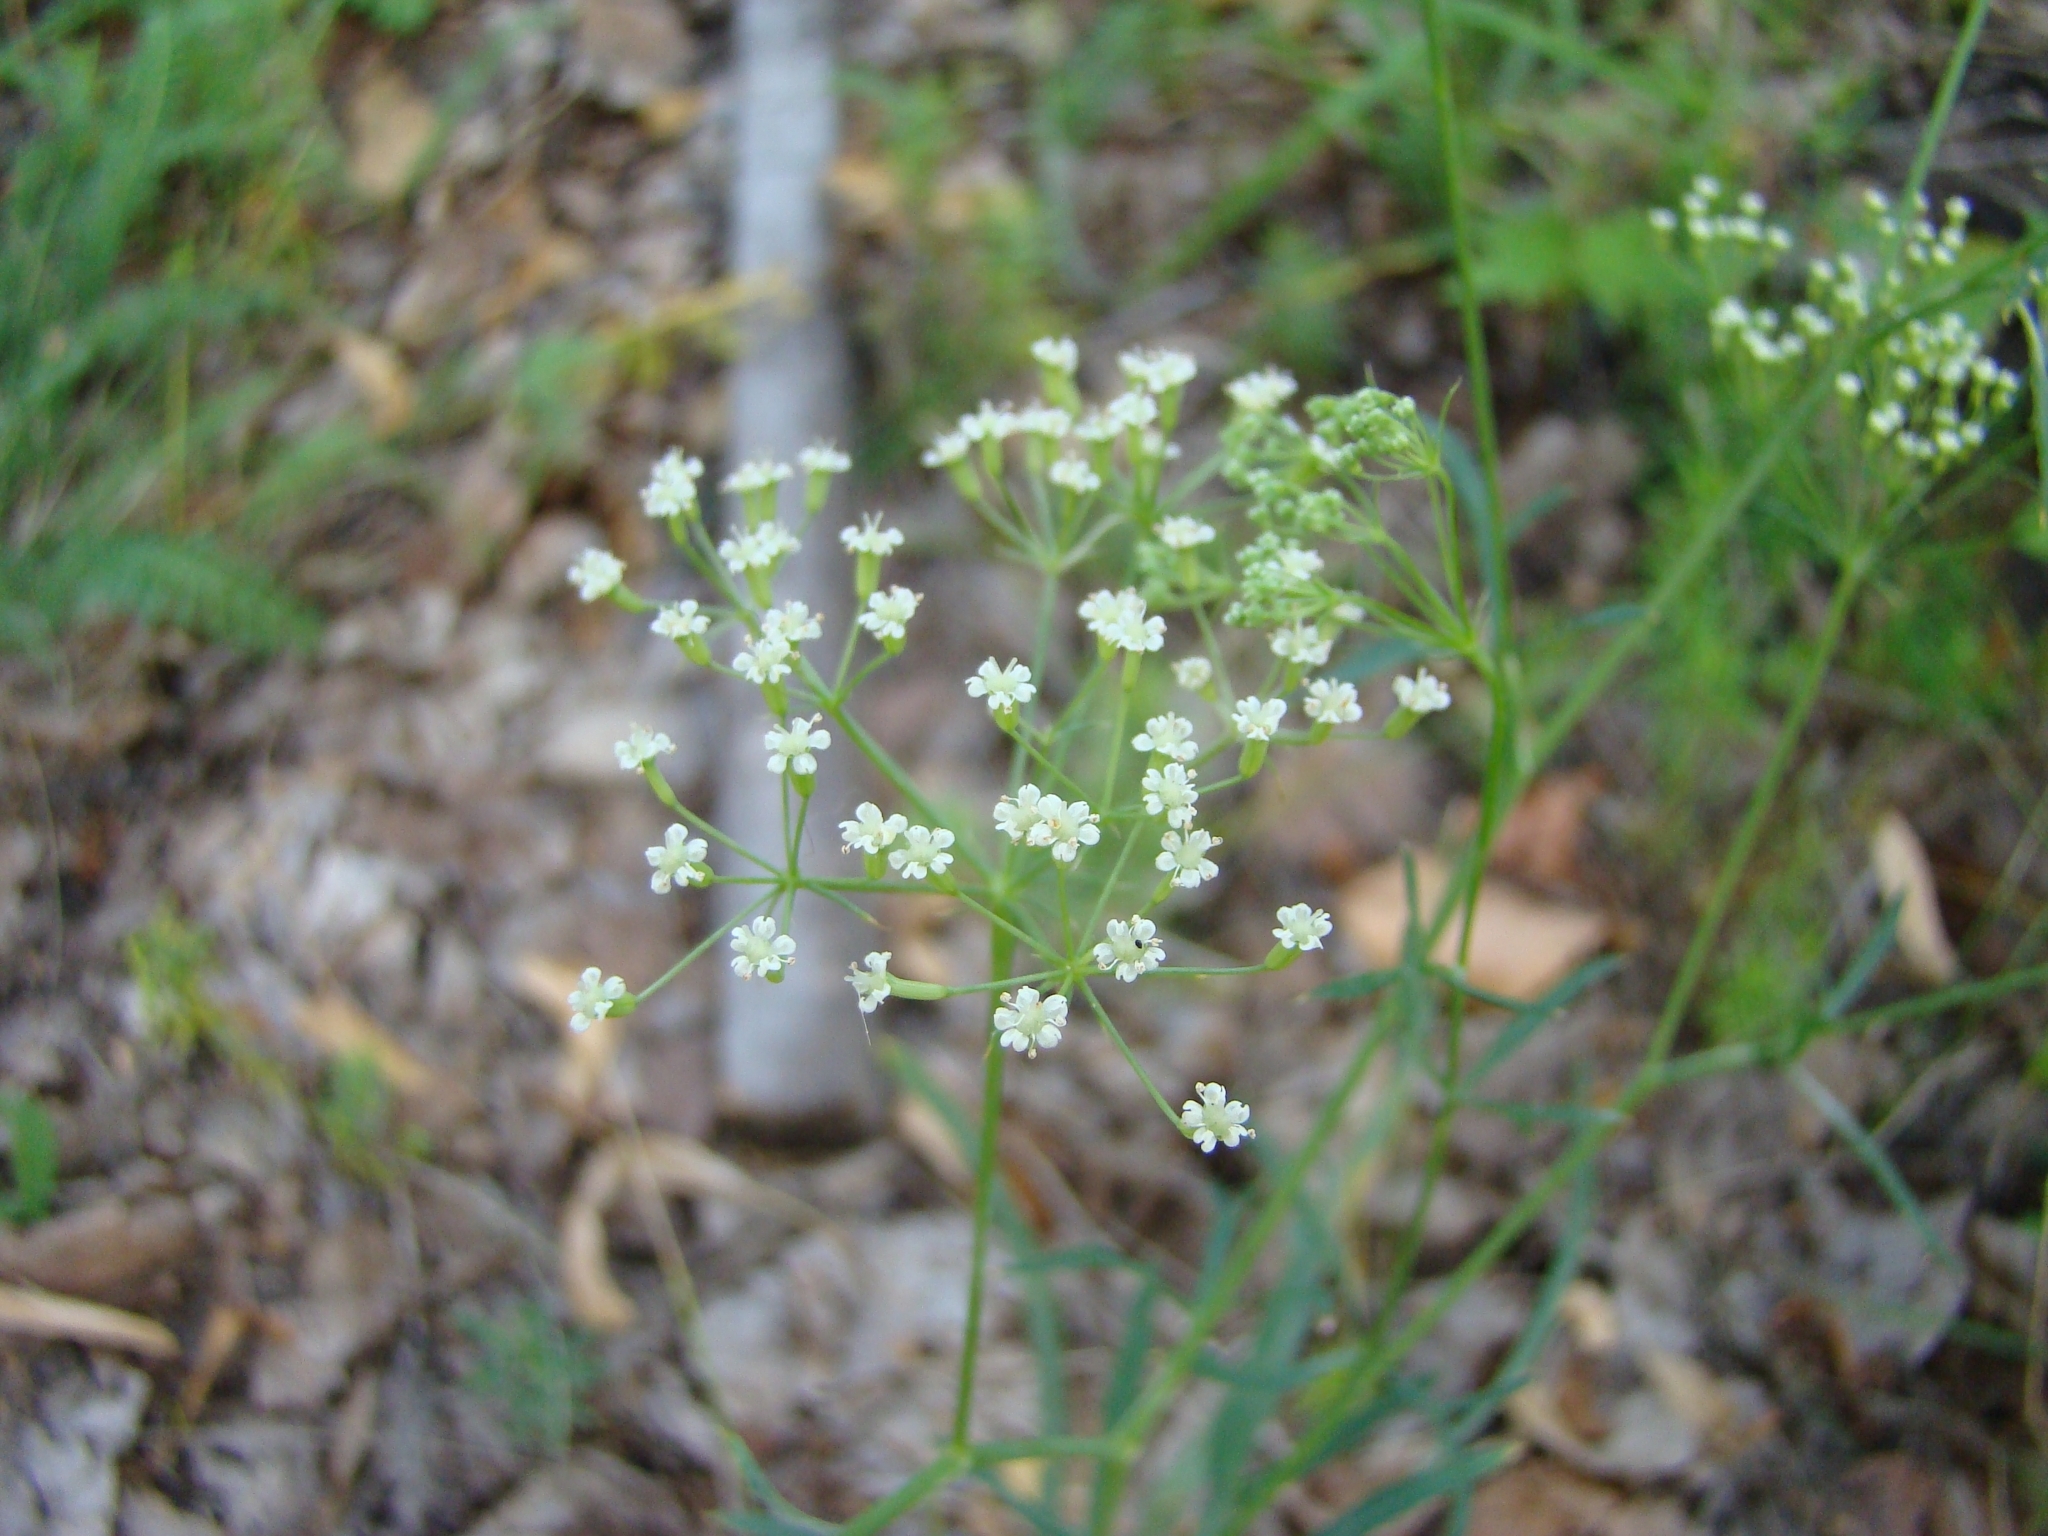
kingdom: Plantae
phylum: Tracheophyta
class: Magnoliopsida
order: Apiales
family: Apiaceae
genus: Falcaria
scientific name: Falcaria vulgaris
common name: Longleaf
